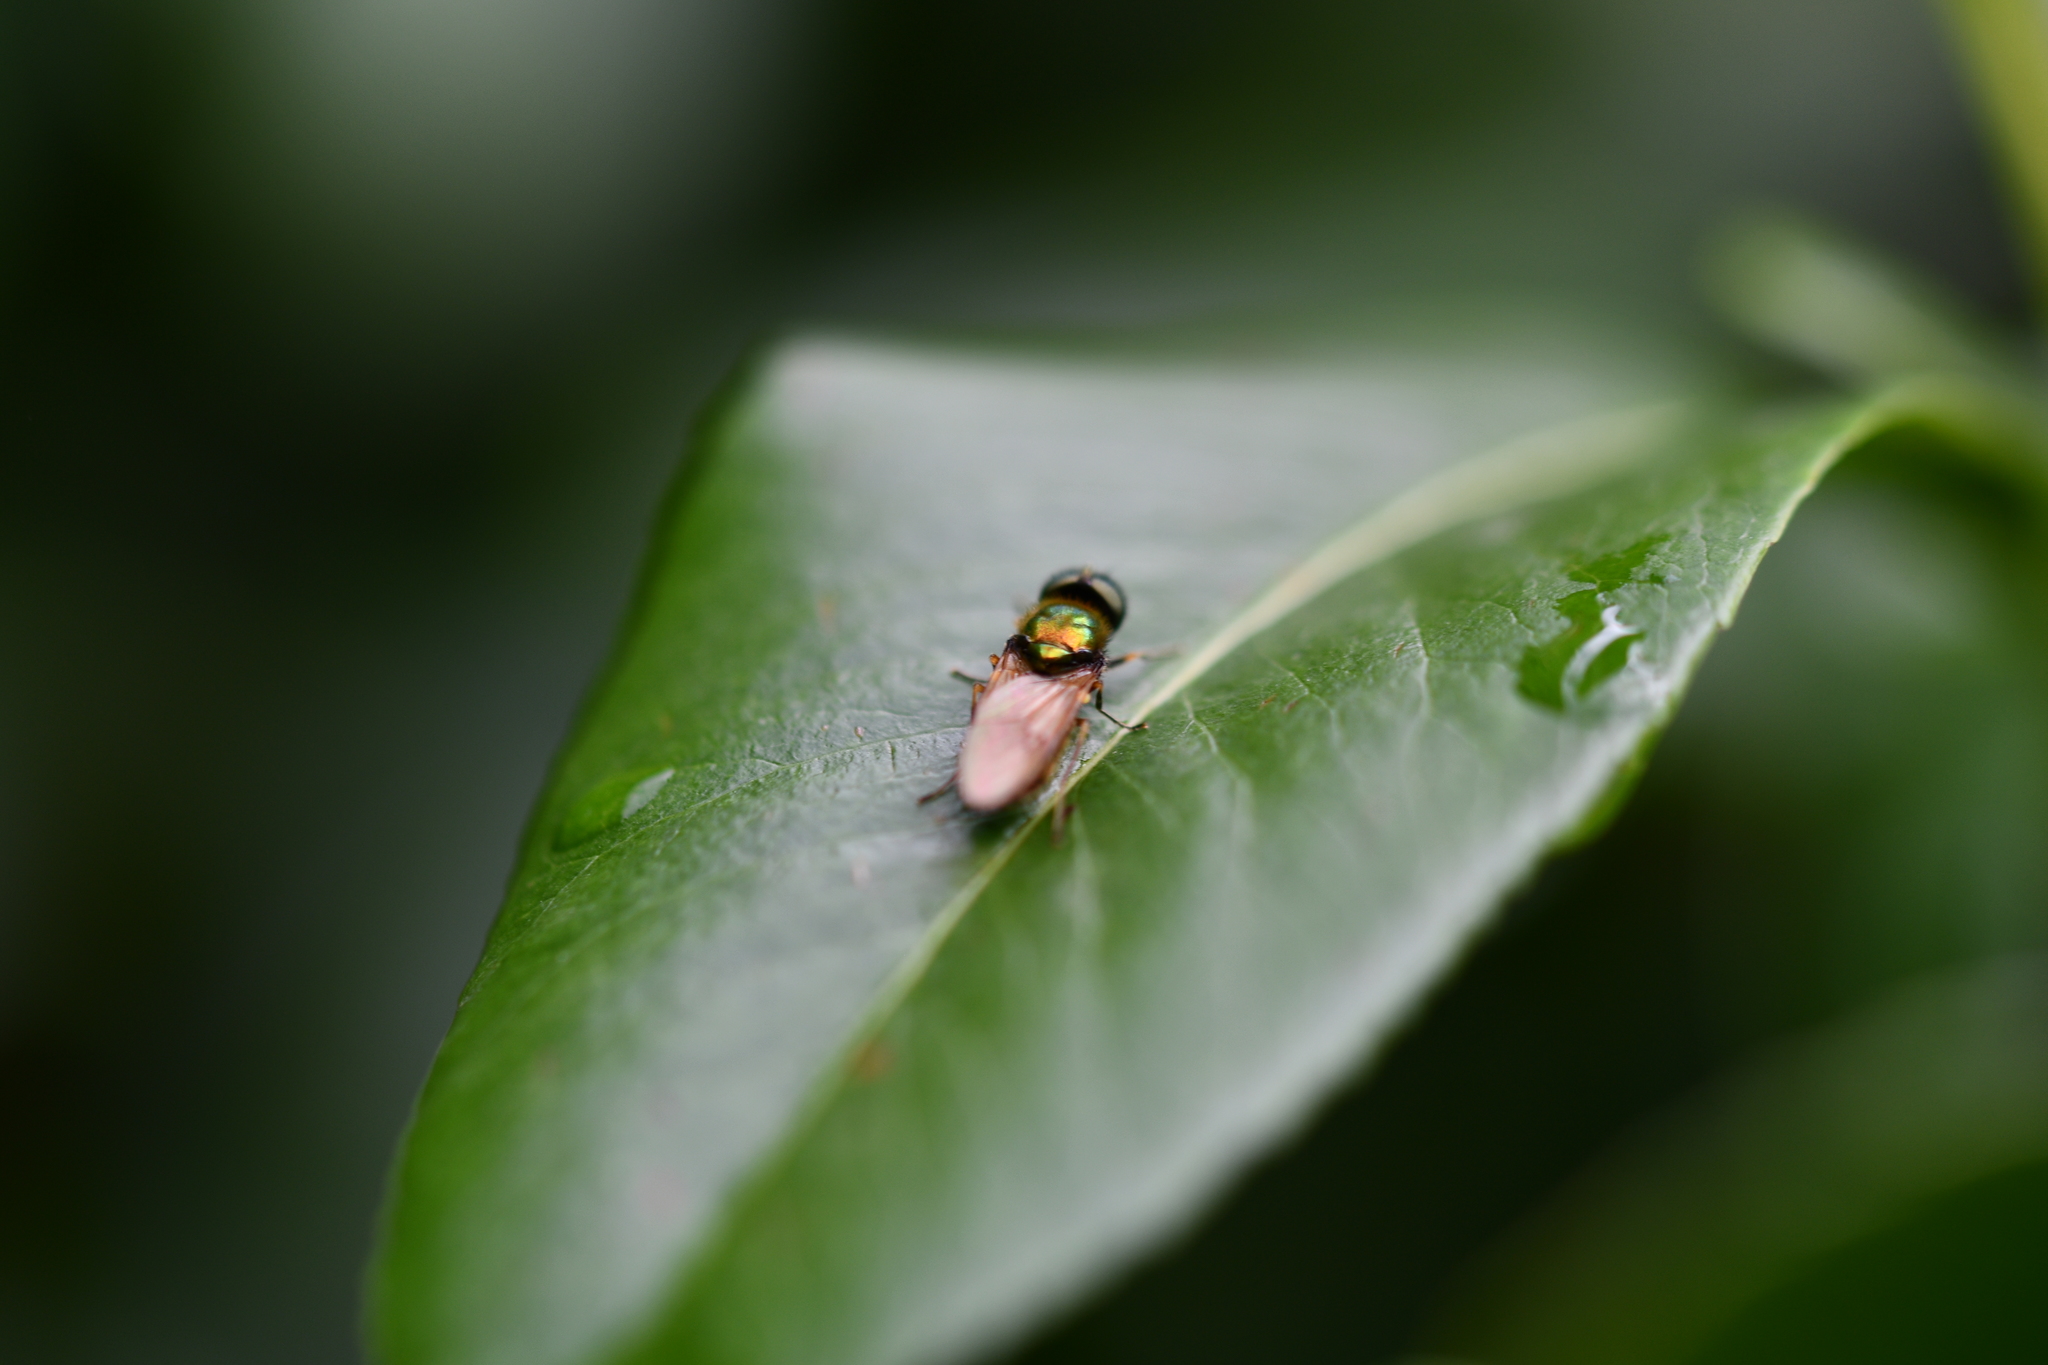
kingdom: Animalia
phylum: Arthropoda
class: Insecta
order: Diptera
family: Stratiomyidae
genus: Chloromyia
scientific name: Chloromyia formosa
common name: Soldier fly
